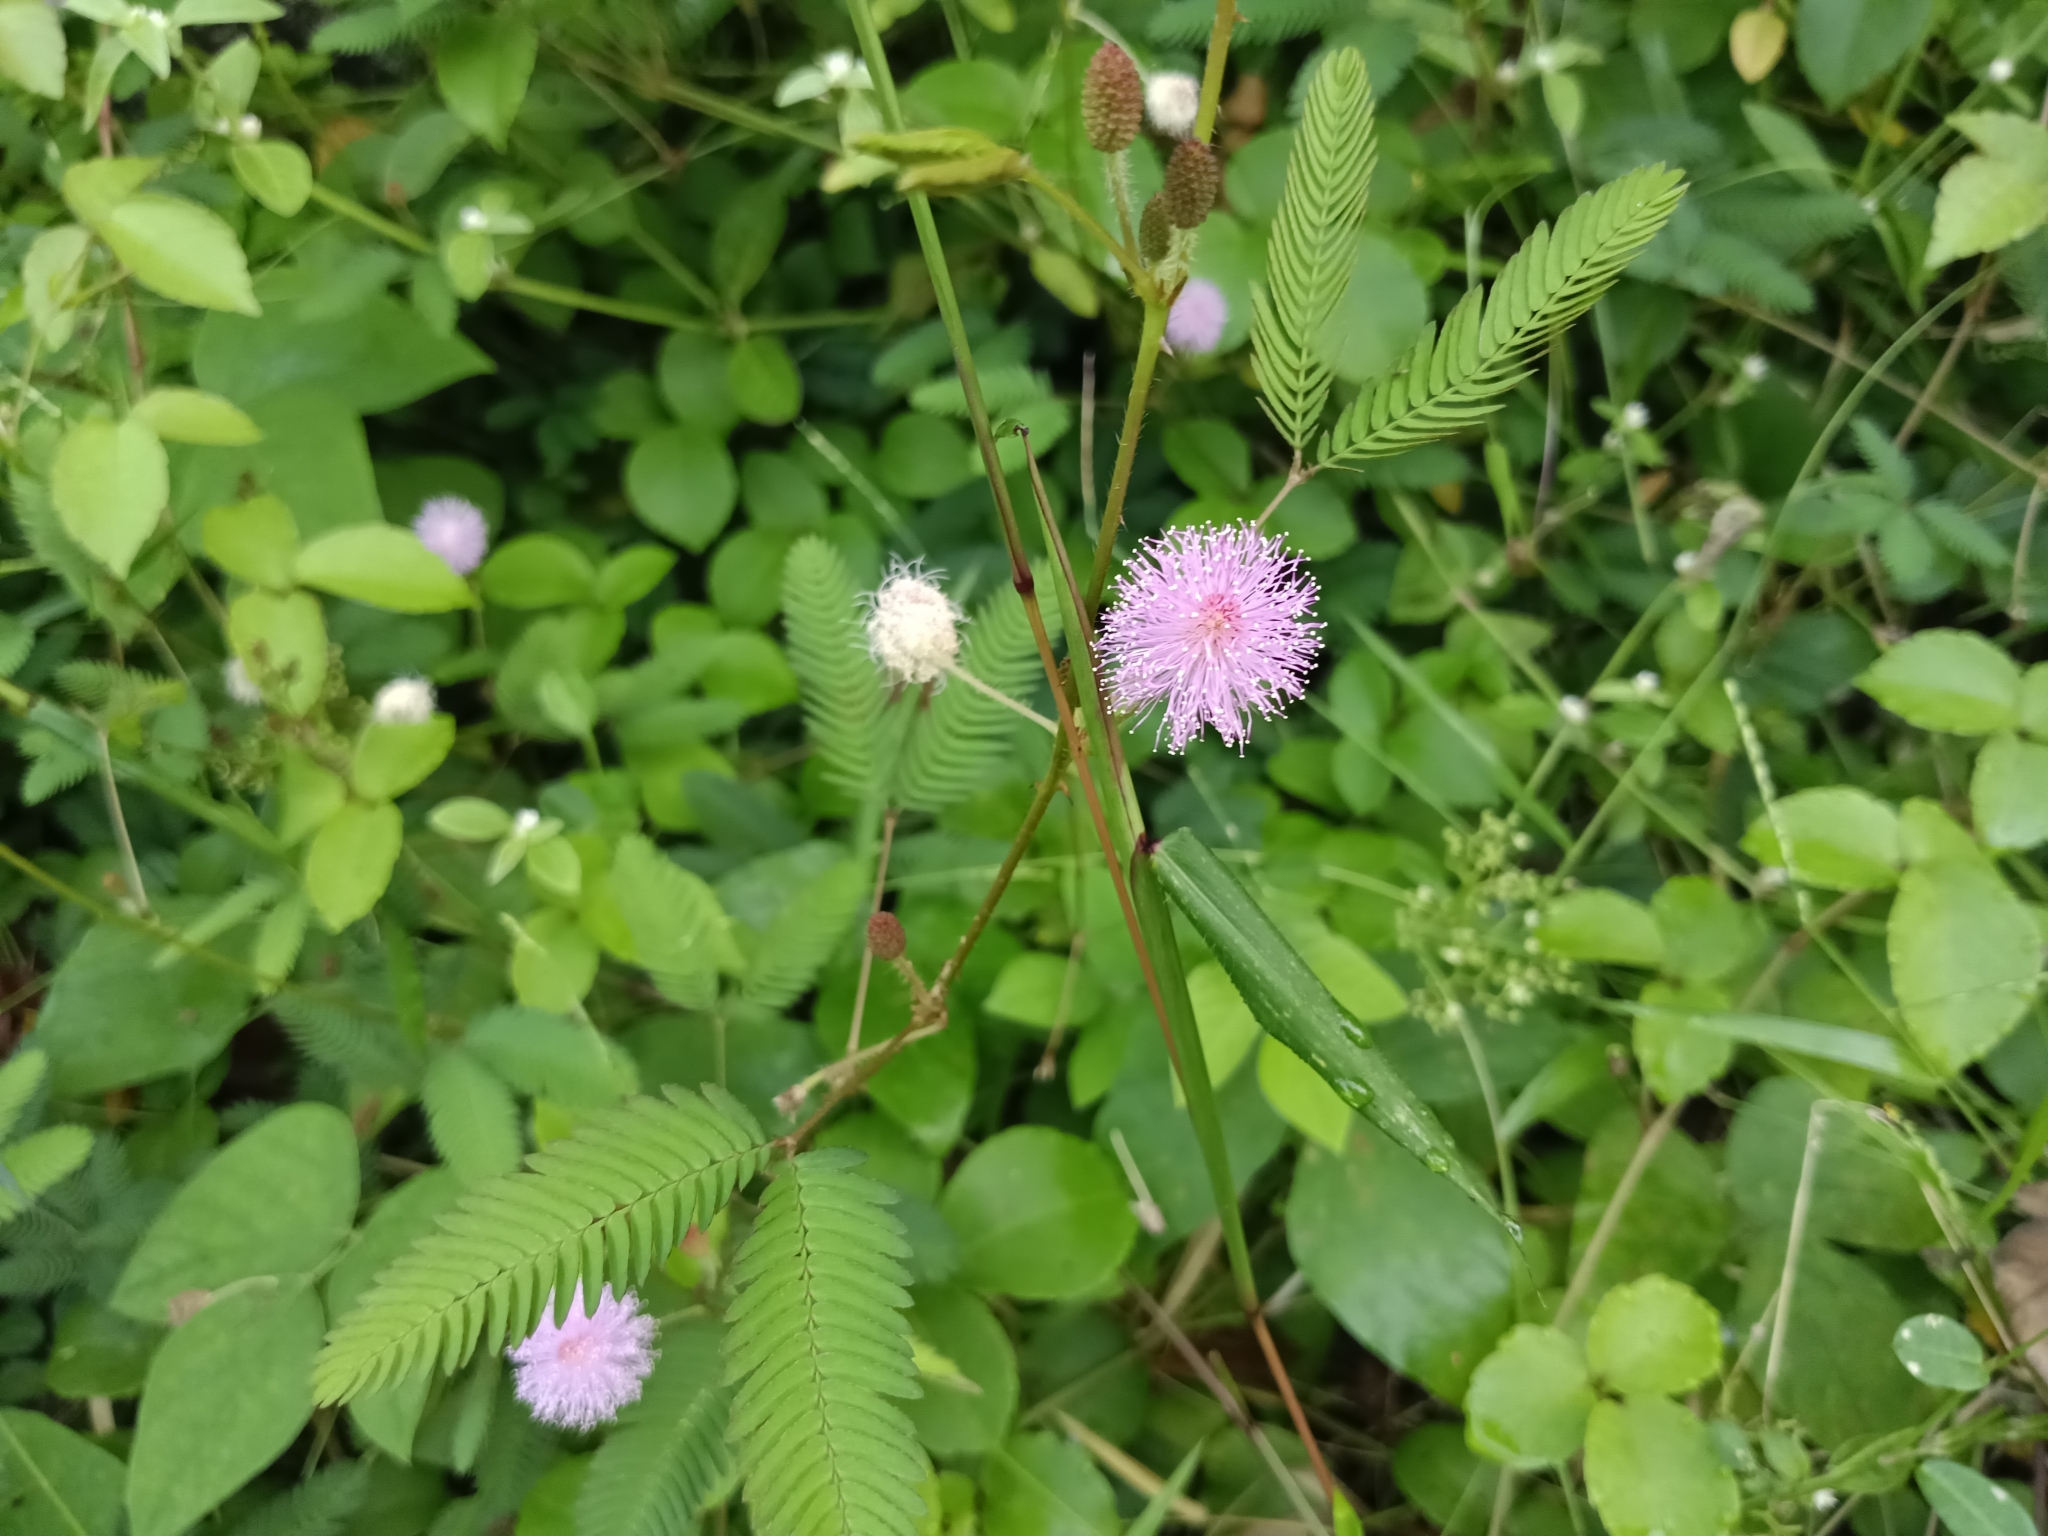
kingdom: Plantae
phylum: Tracheophyta
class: Magnoliopsida
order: Fabales
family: Fabaceae
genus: Mimosa
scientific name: Mimosa pudica
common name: Sensitive plant
